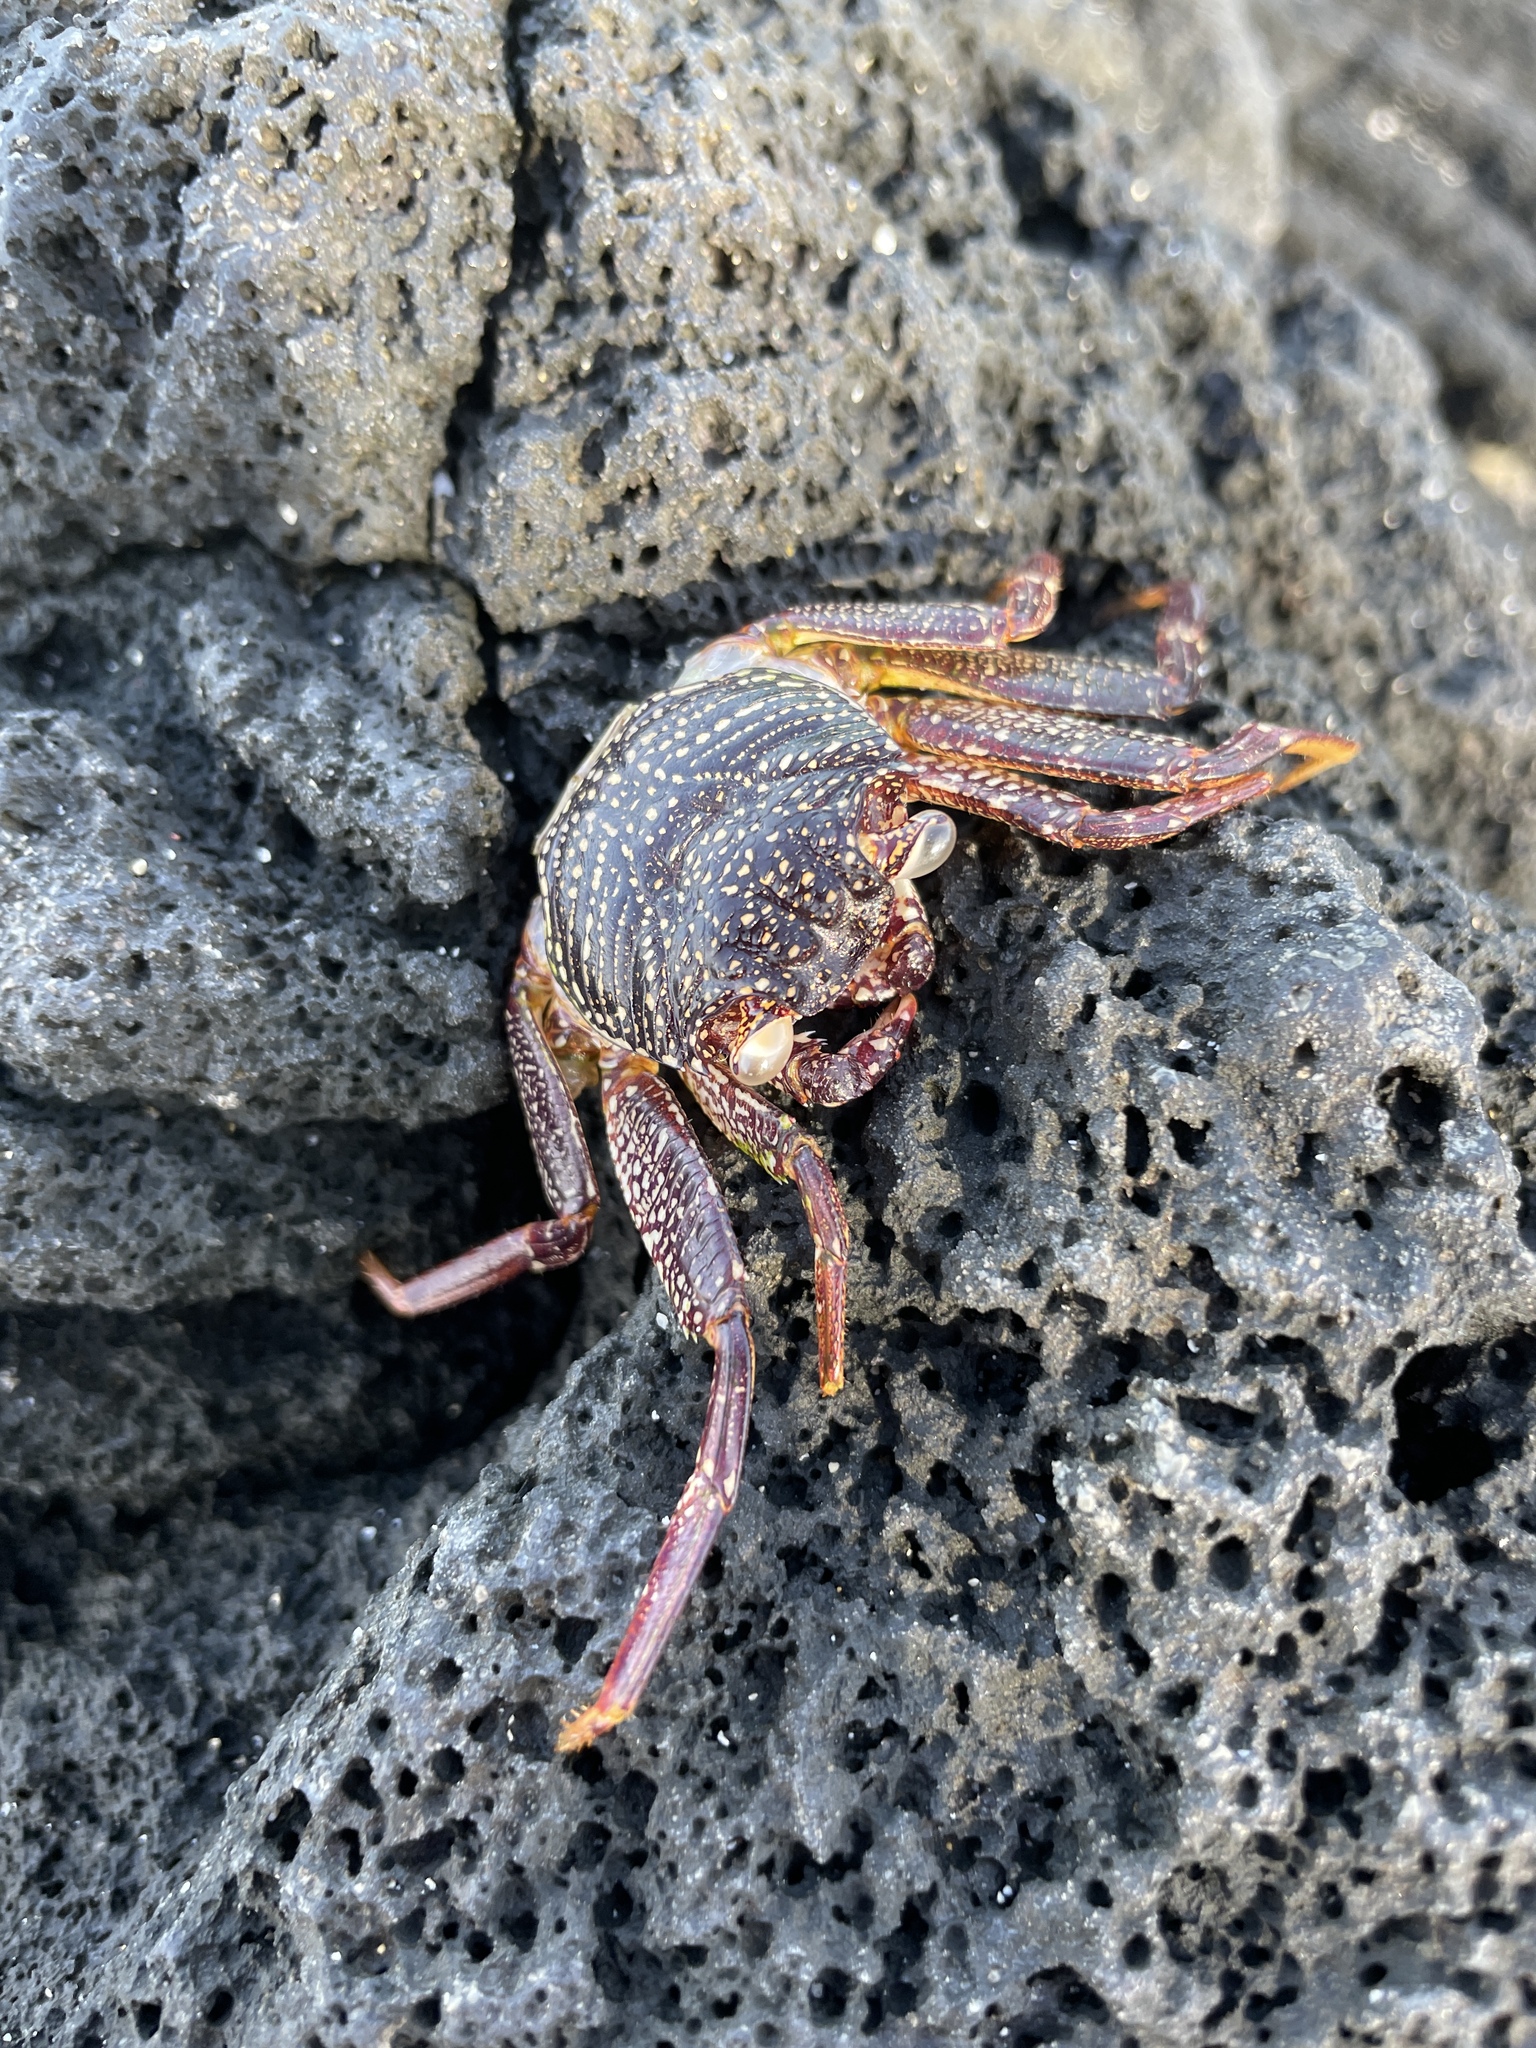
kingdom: Animalia
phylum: Arthropoda
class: Malacostraca
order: Decapoda
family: Grapsidae
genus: Grapsus
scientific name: Grapsus tenuicrustatus
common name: Natal lightfoot crab
